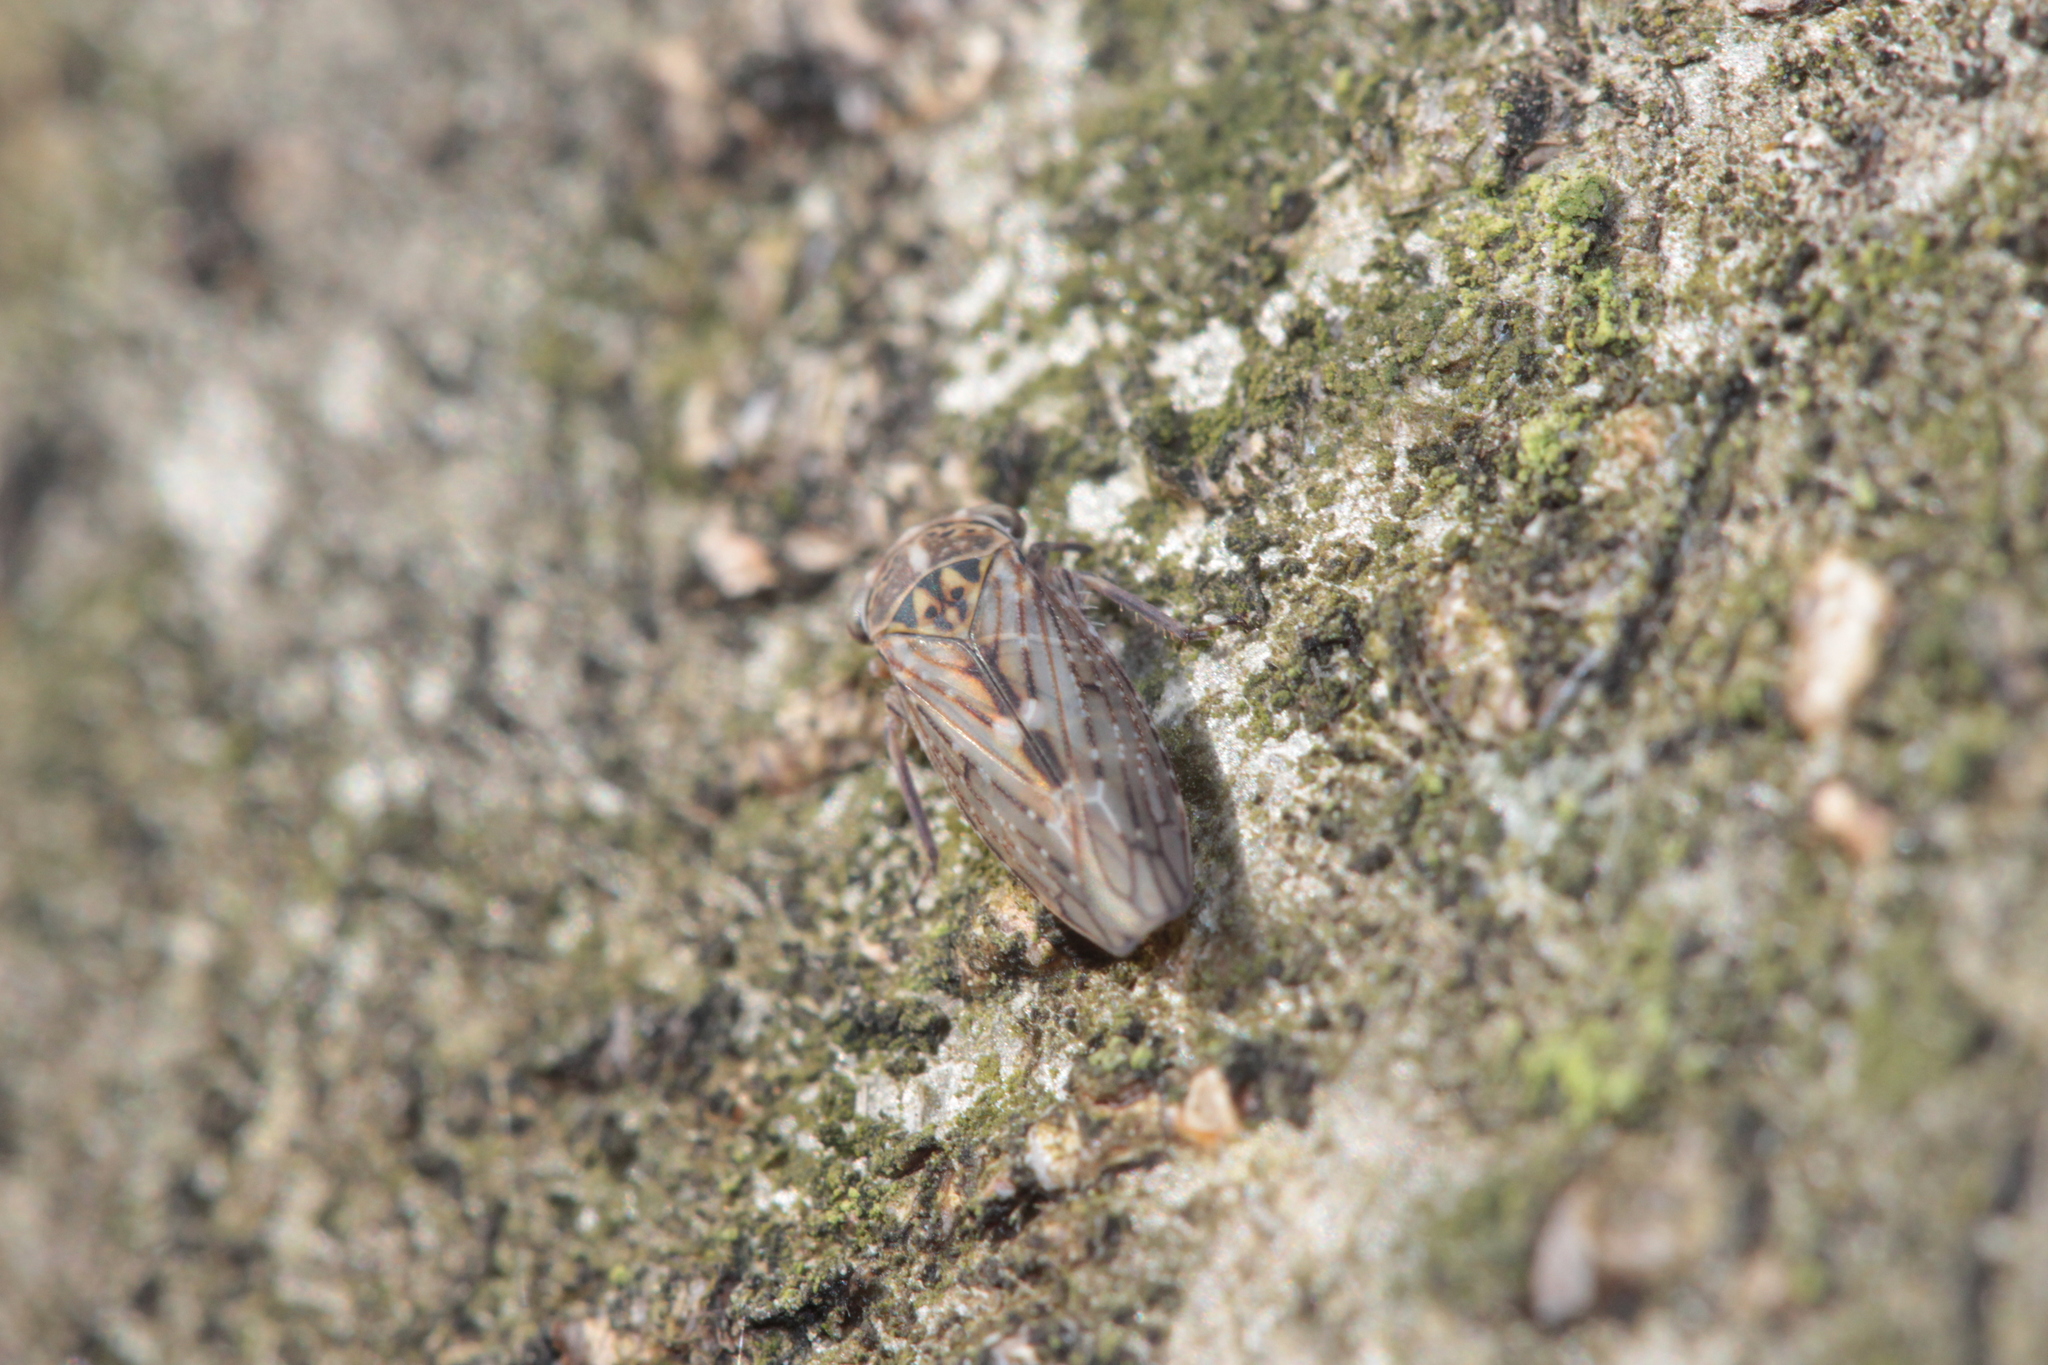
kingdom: Animalia
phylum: Arthropoda
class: Insecta
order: Hemiptera
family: Cicadellidae
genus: Idiocerus
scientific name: Idiocerus herrichii
